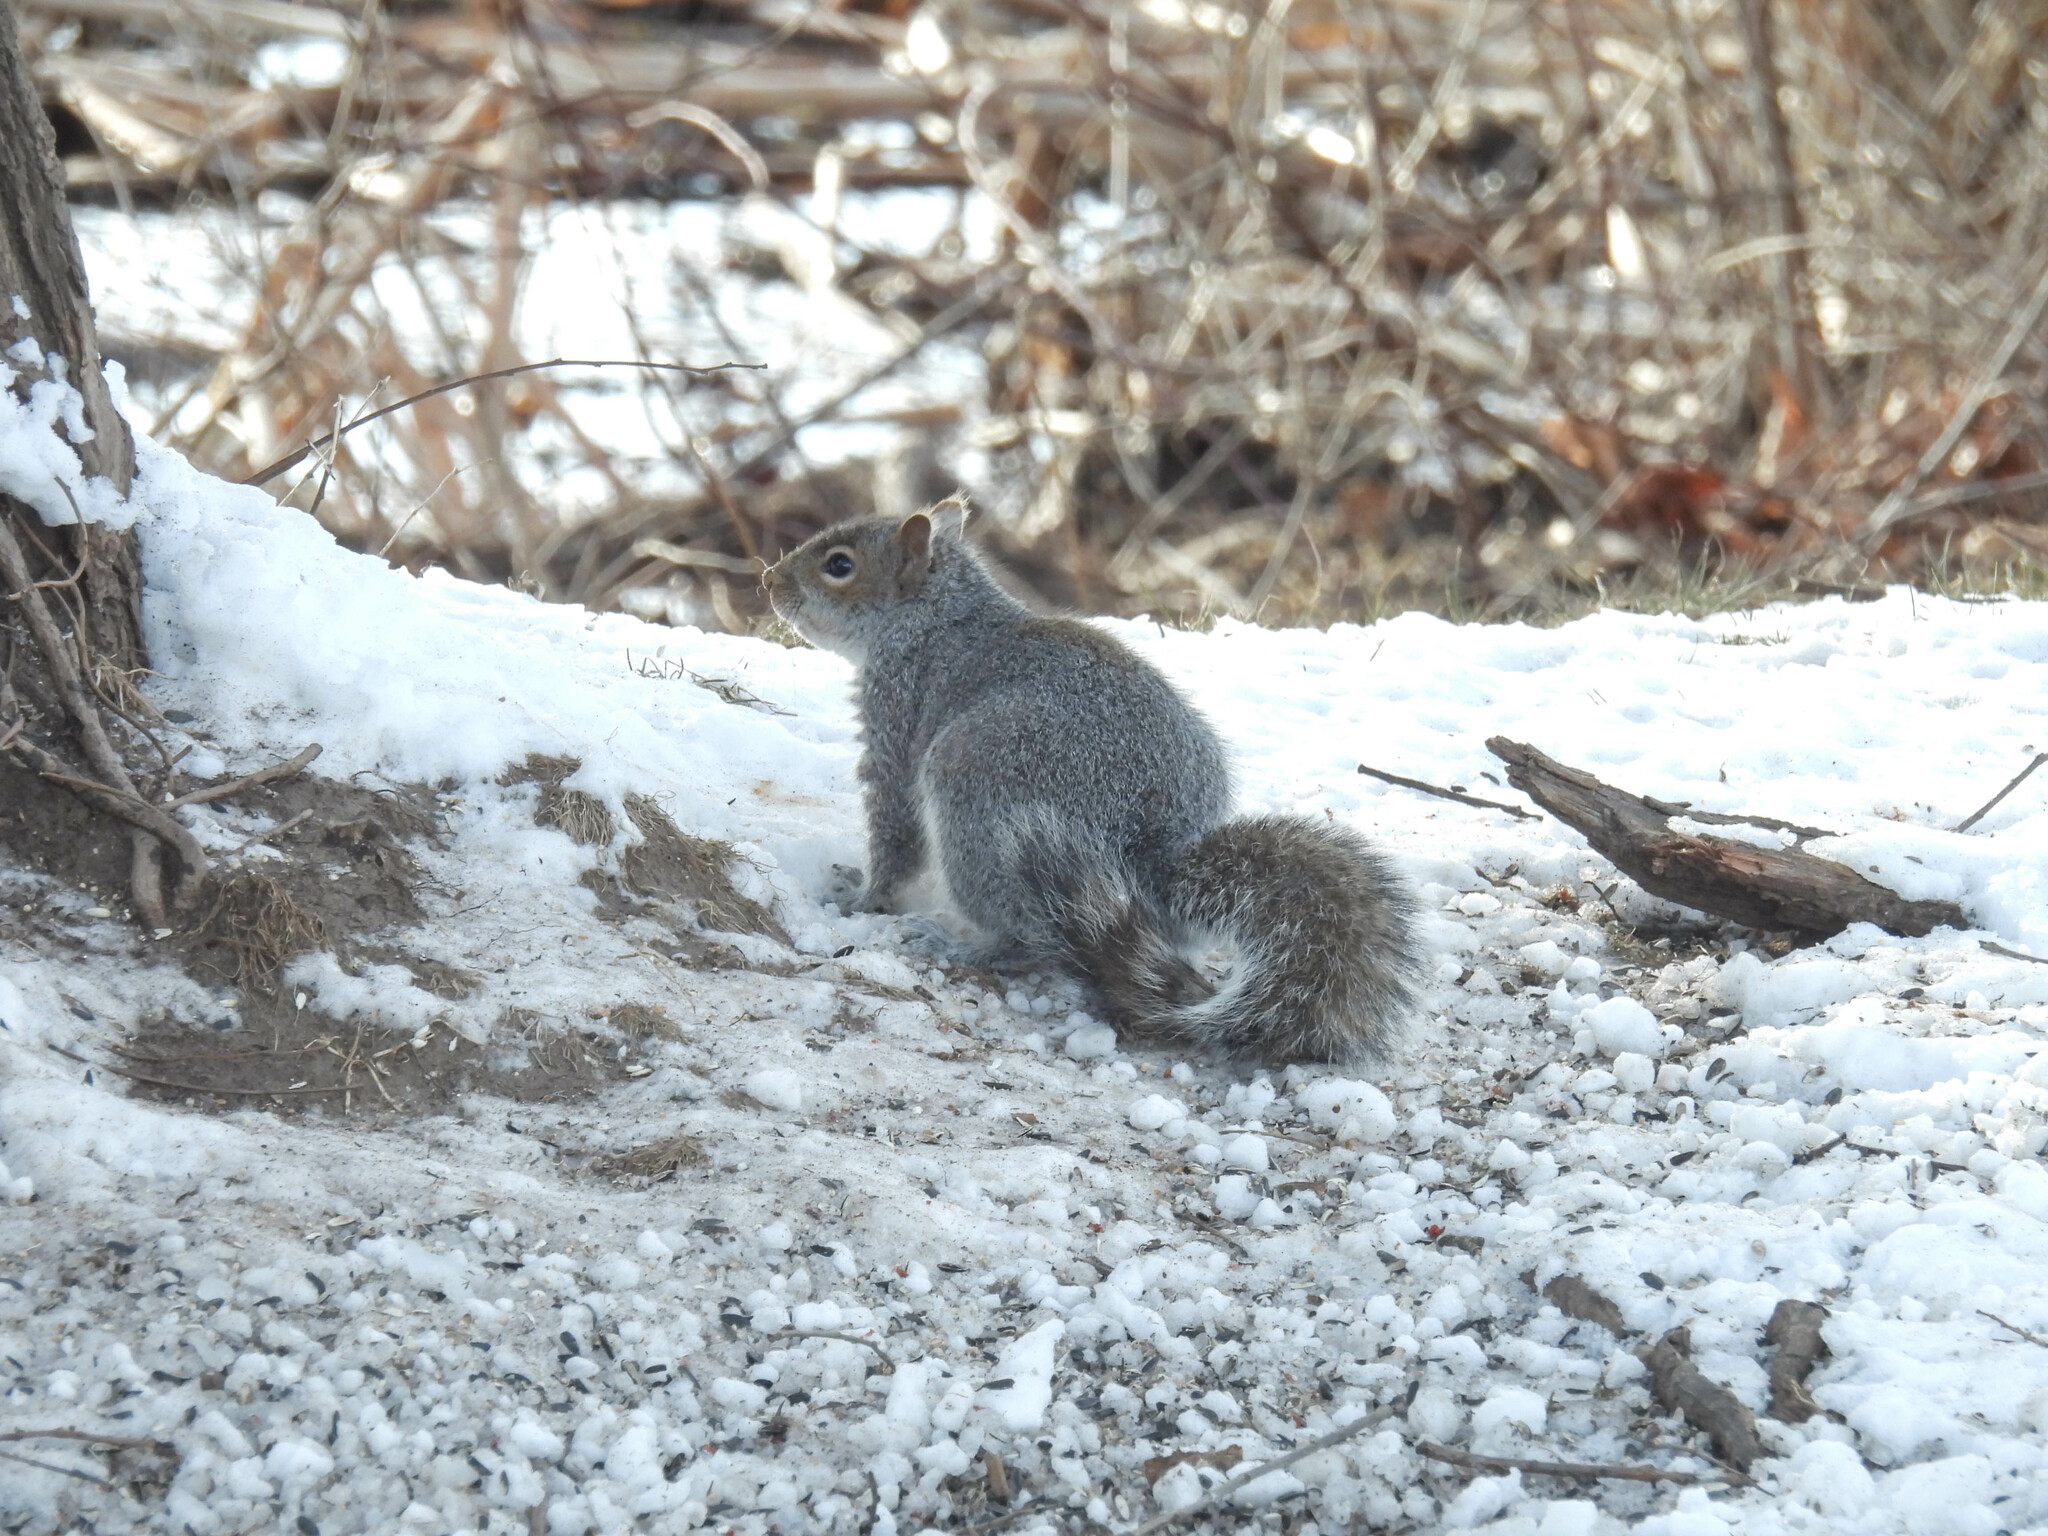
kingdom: Animalia
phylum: Chordata
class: Mammalia
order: Rodentia
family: Sciuridae
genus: Sciurus
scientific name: Sciurus carolinensis
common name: Eastern gray squirrel
